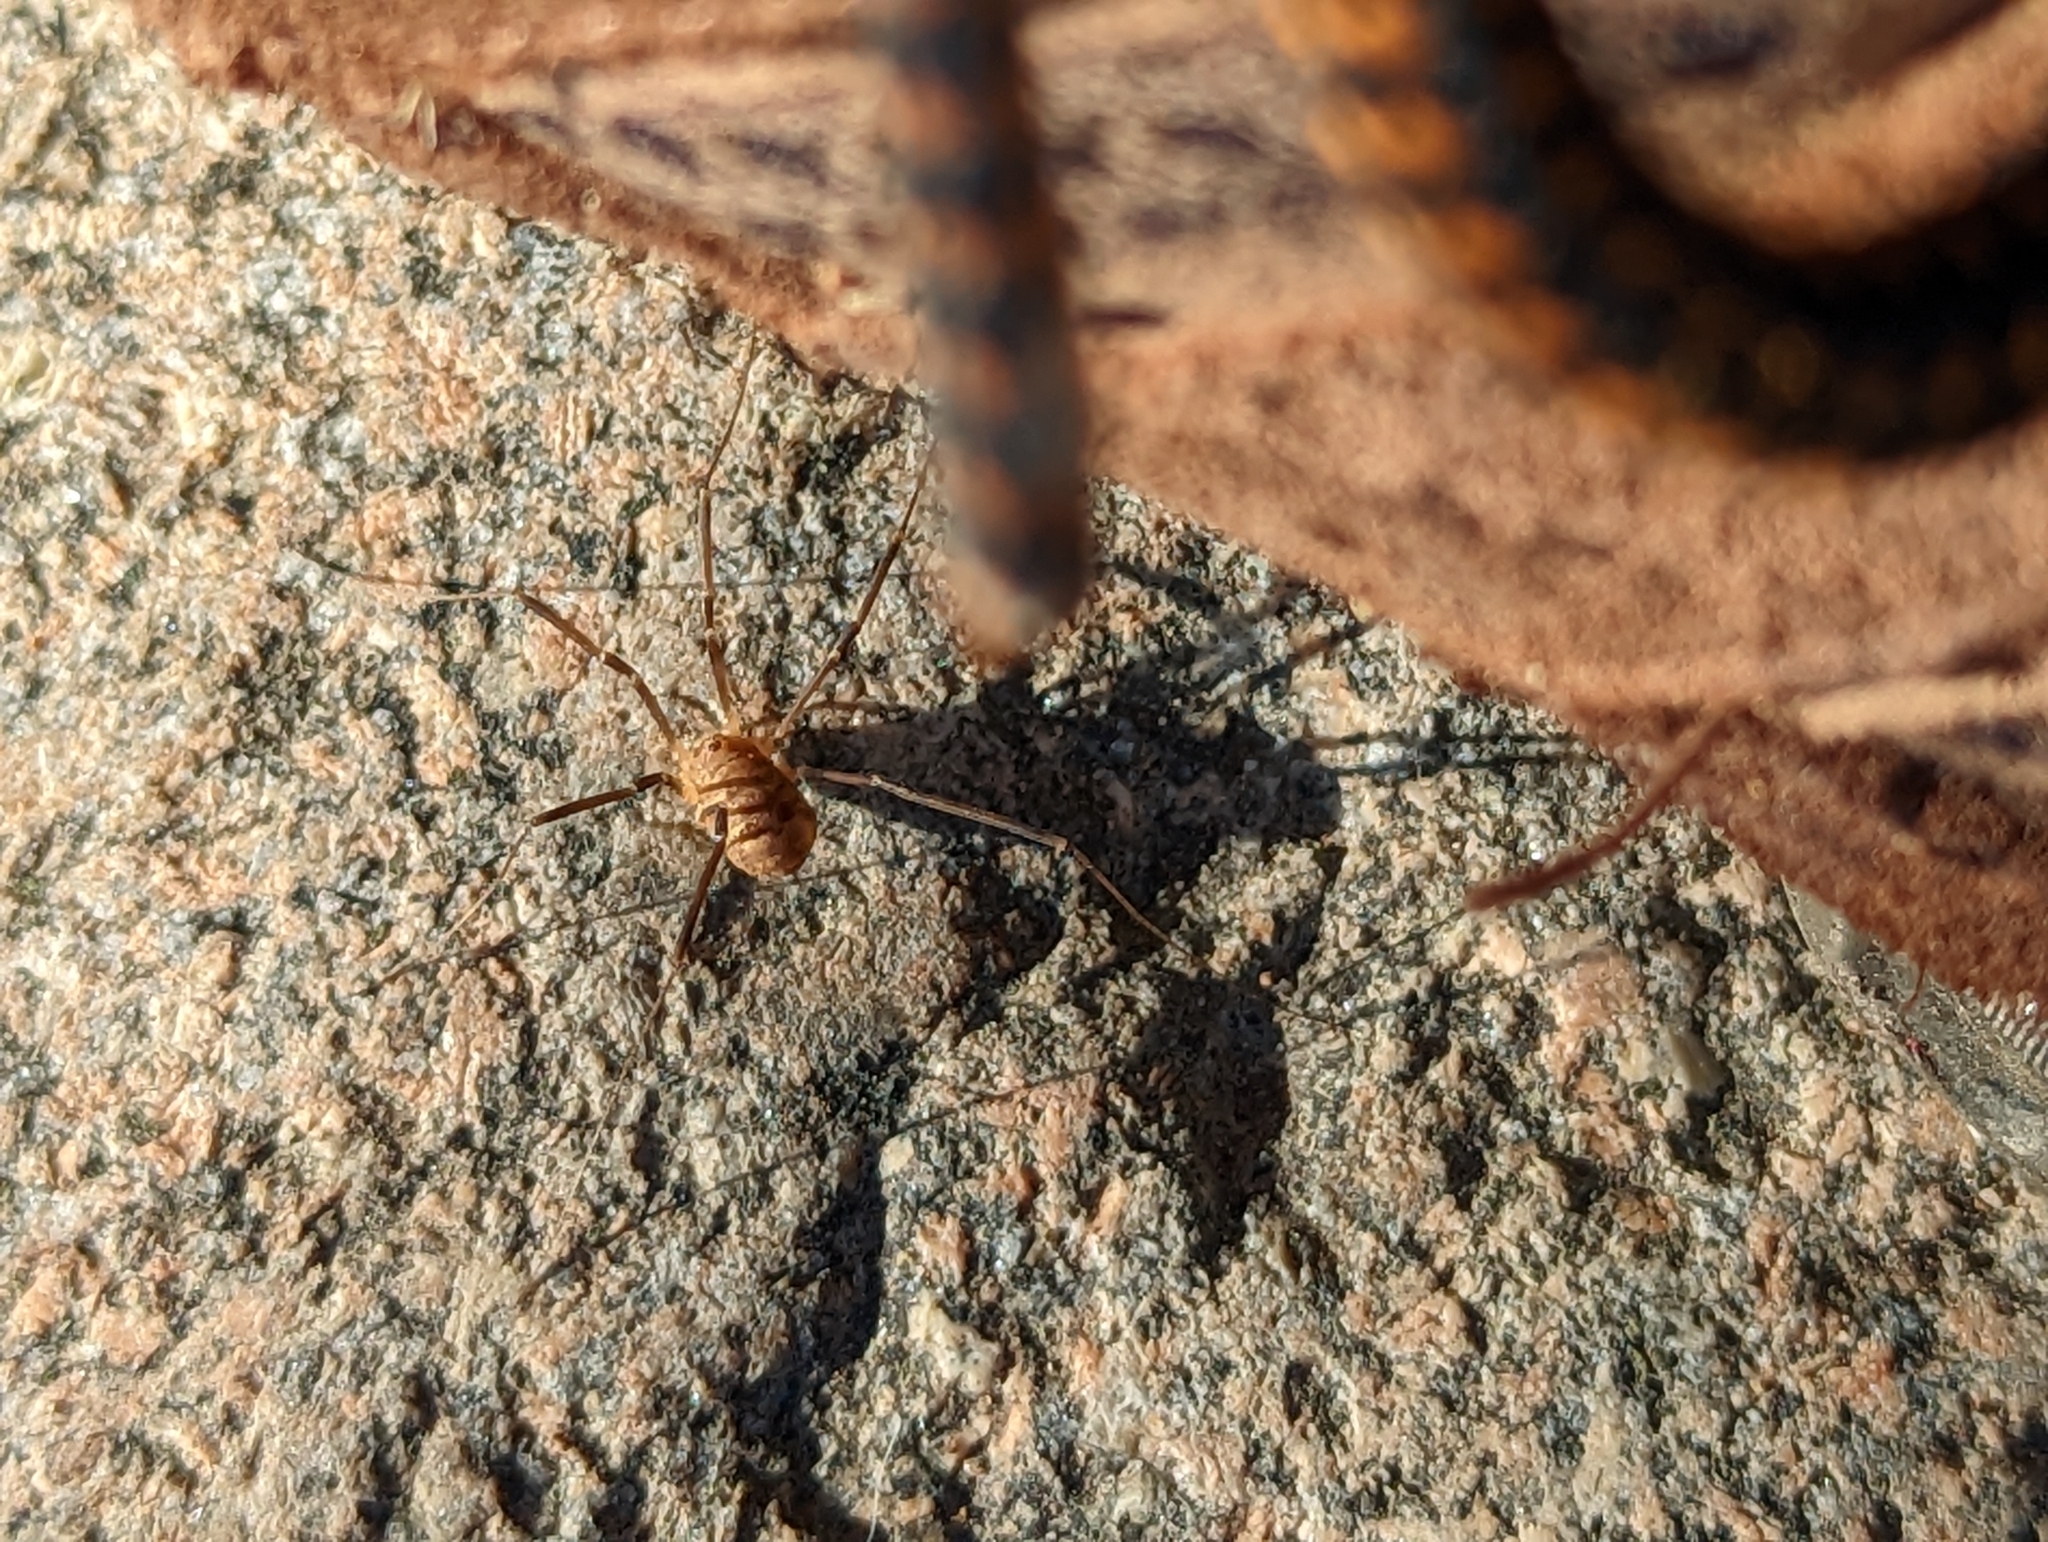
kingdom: Animalia
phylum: Arthropoda
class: Arachnida
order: Opiliones
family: Sclerosomatidae
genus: Nelima
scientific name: Nelima gothica
